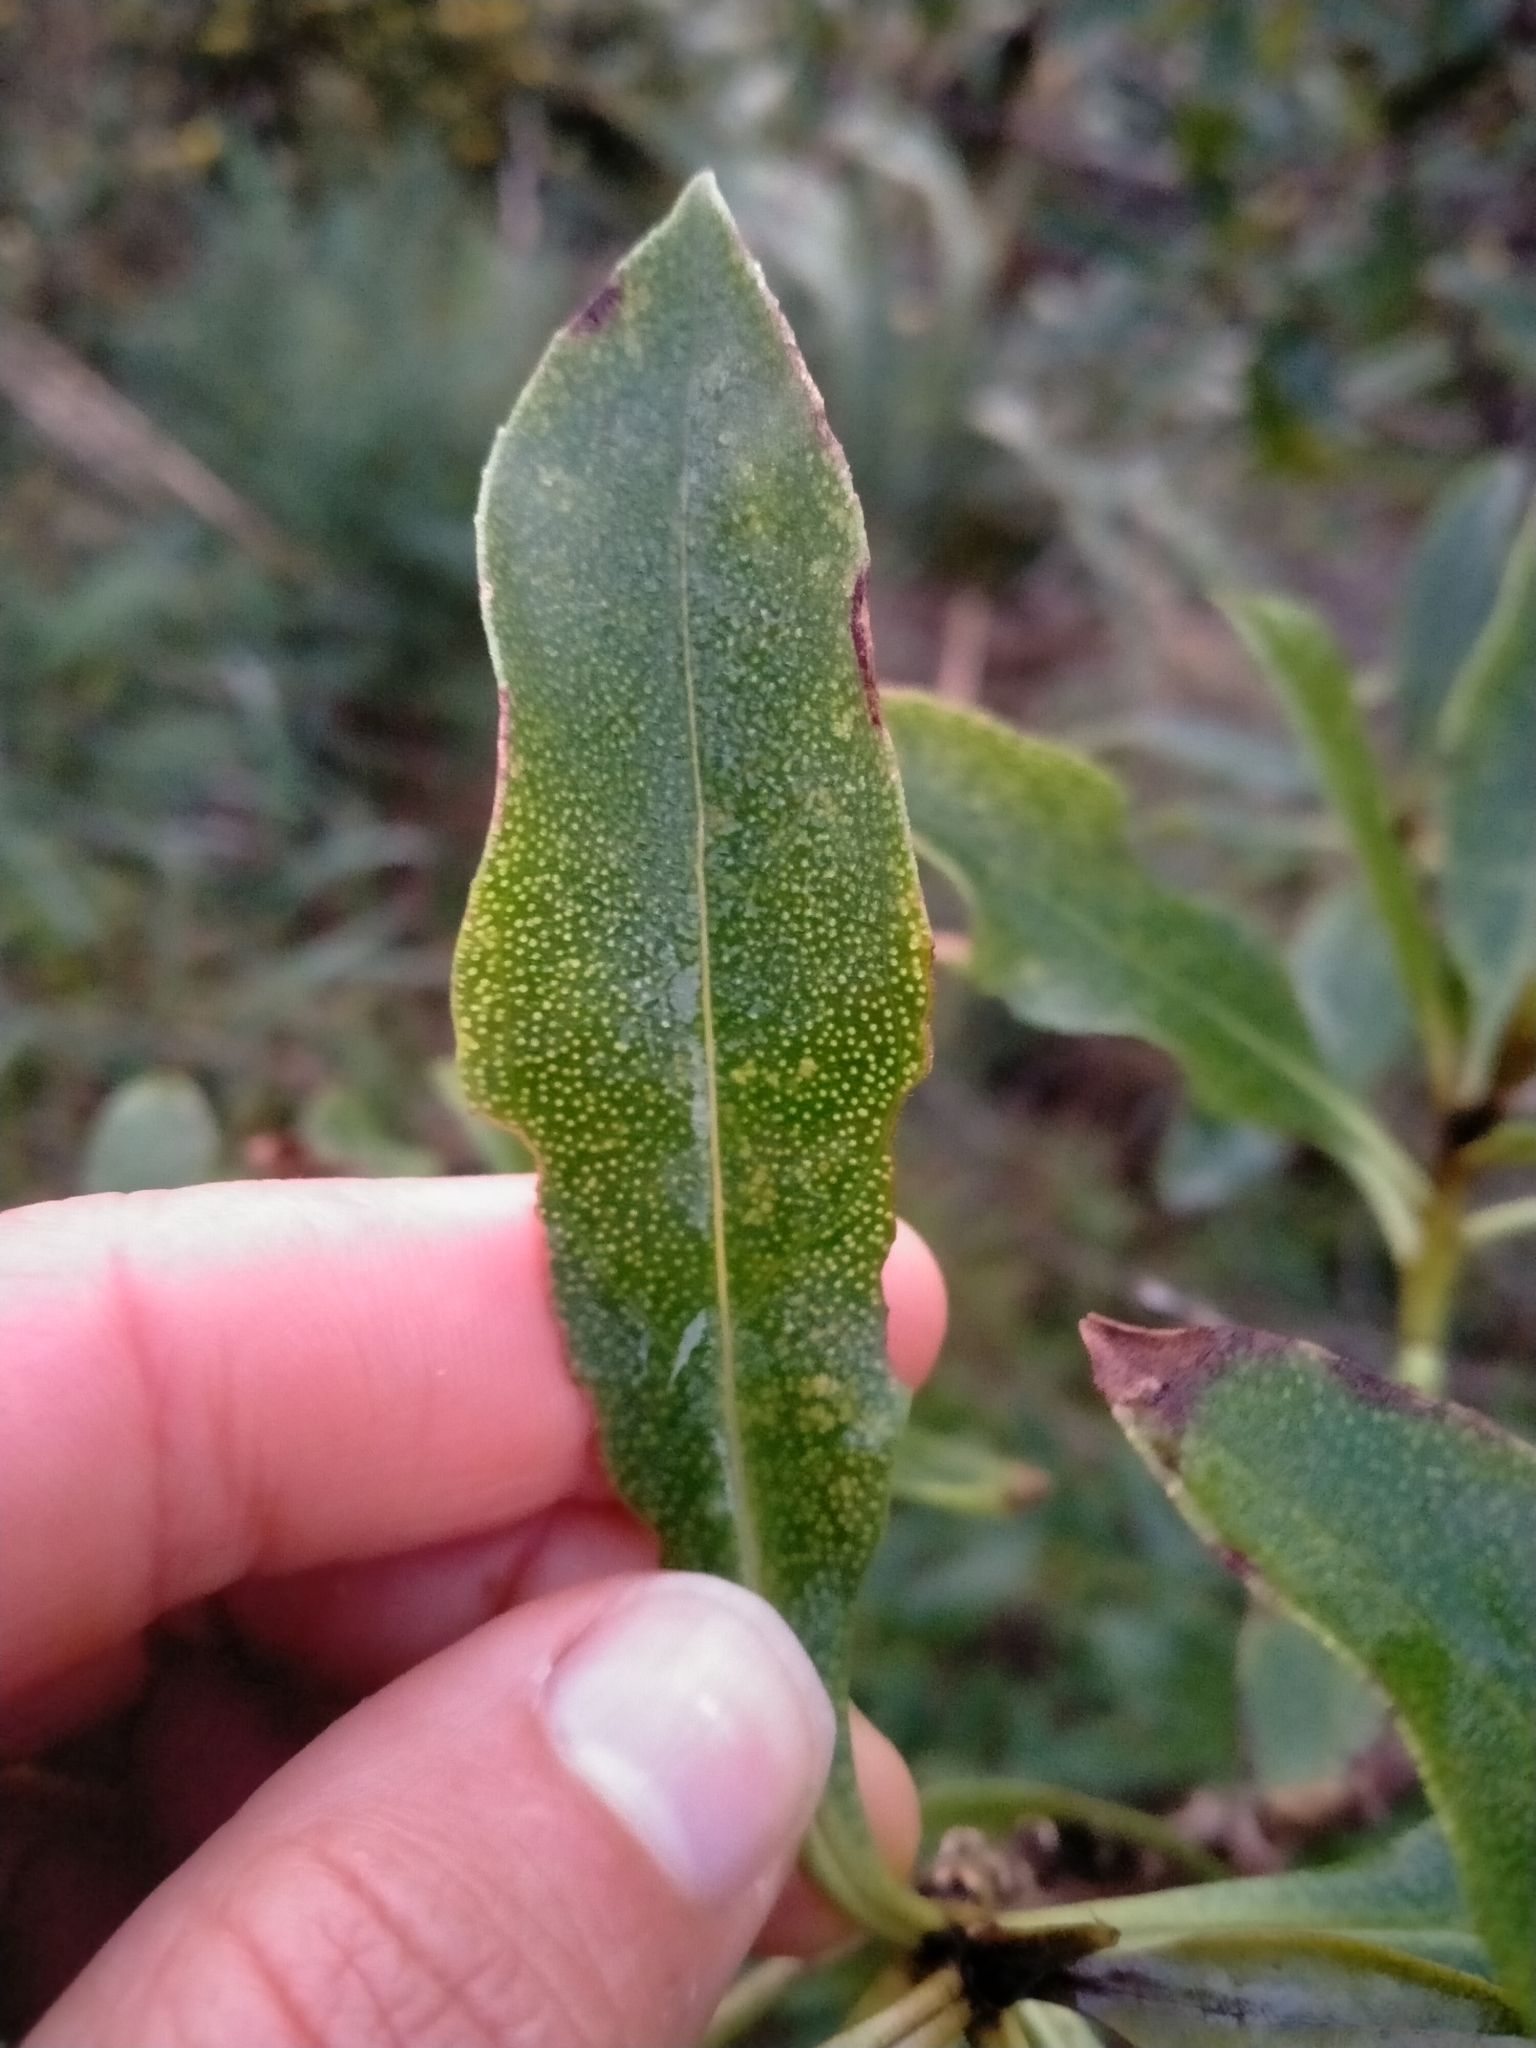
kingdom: Plantae
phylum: Tracheophyta
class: Magnoliopsida
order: Lamiales
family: Scrophulariaceae
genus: Myoporum
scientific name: Myoporum laetum
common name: Ngaio tree
